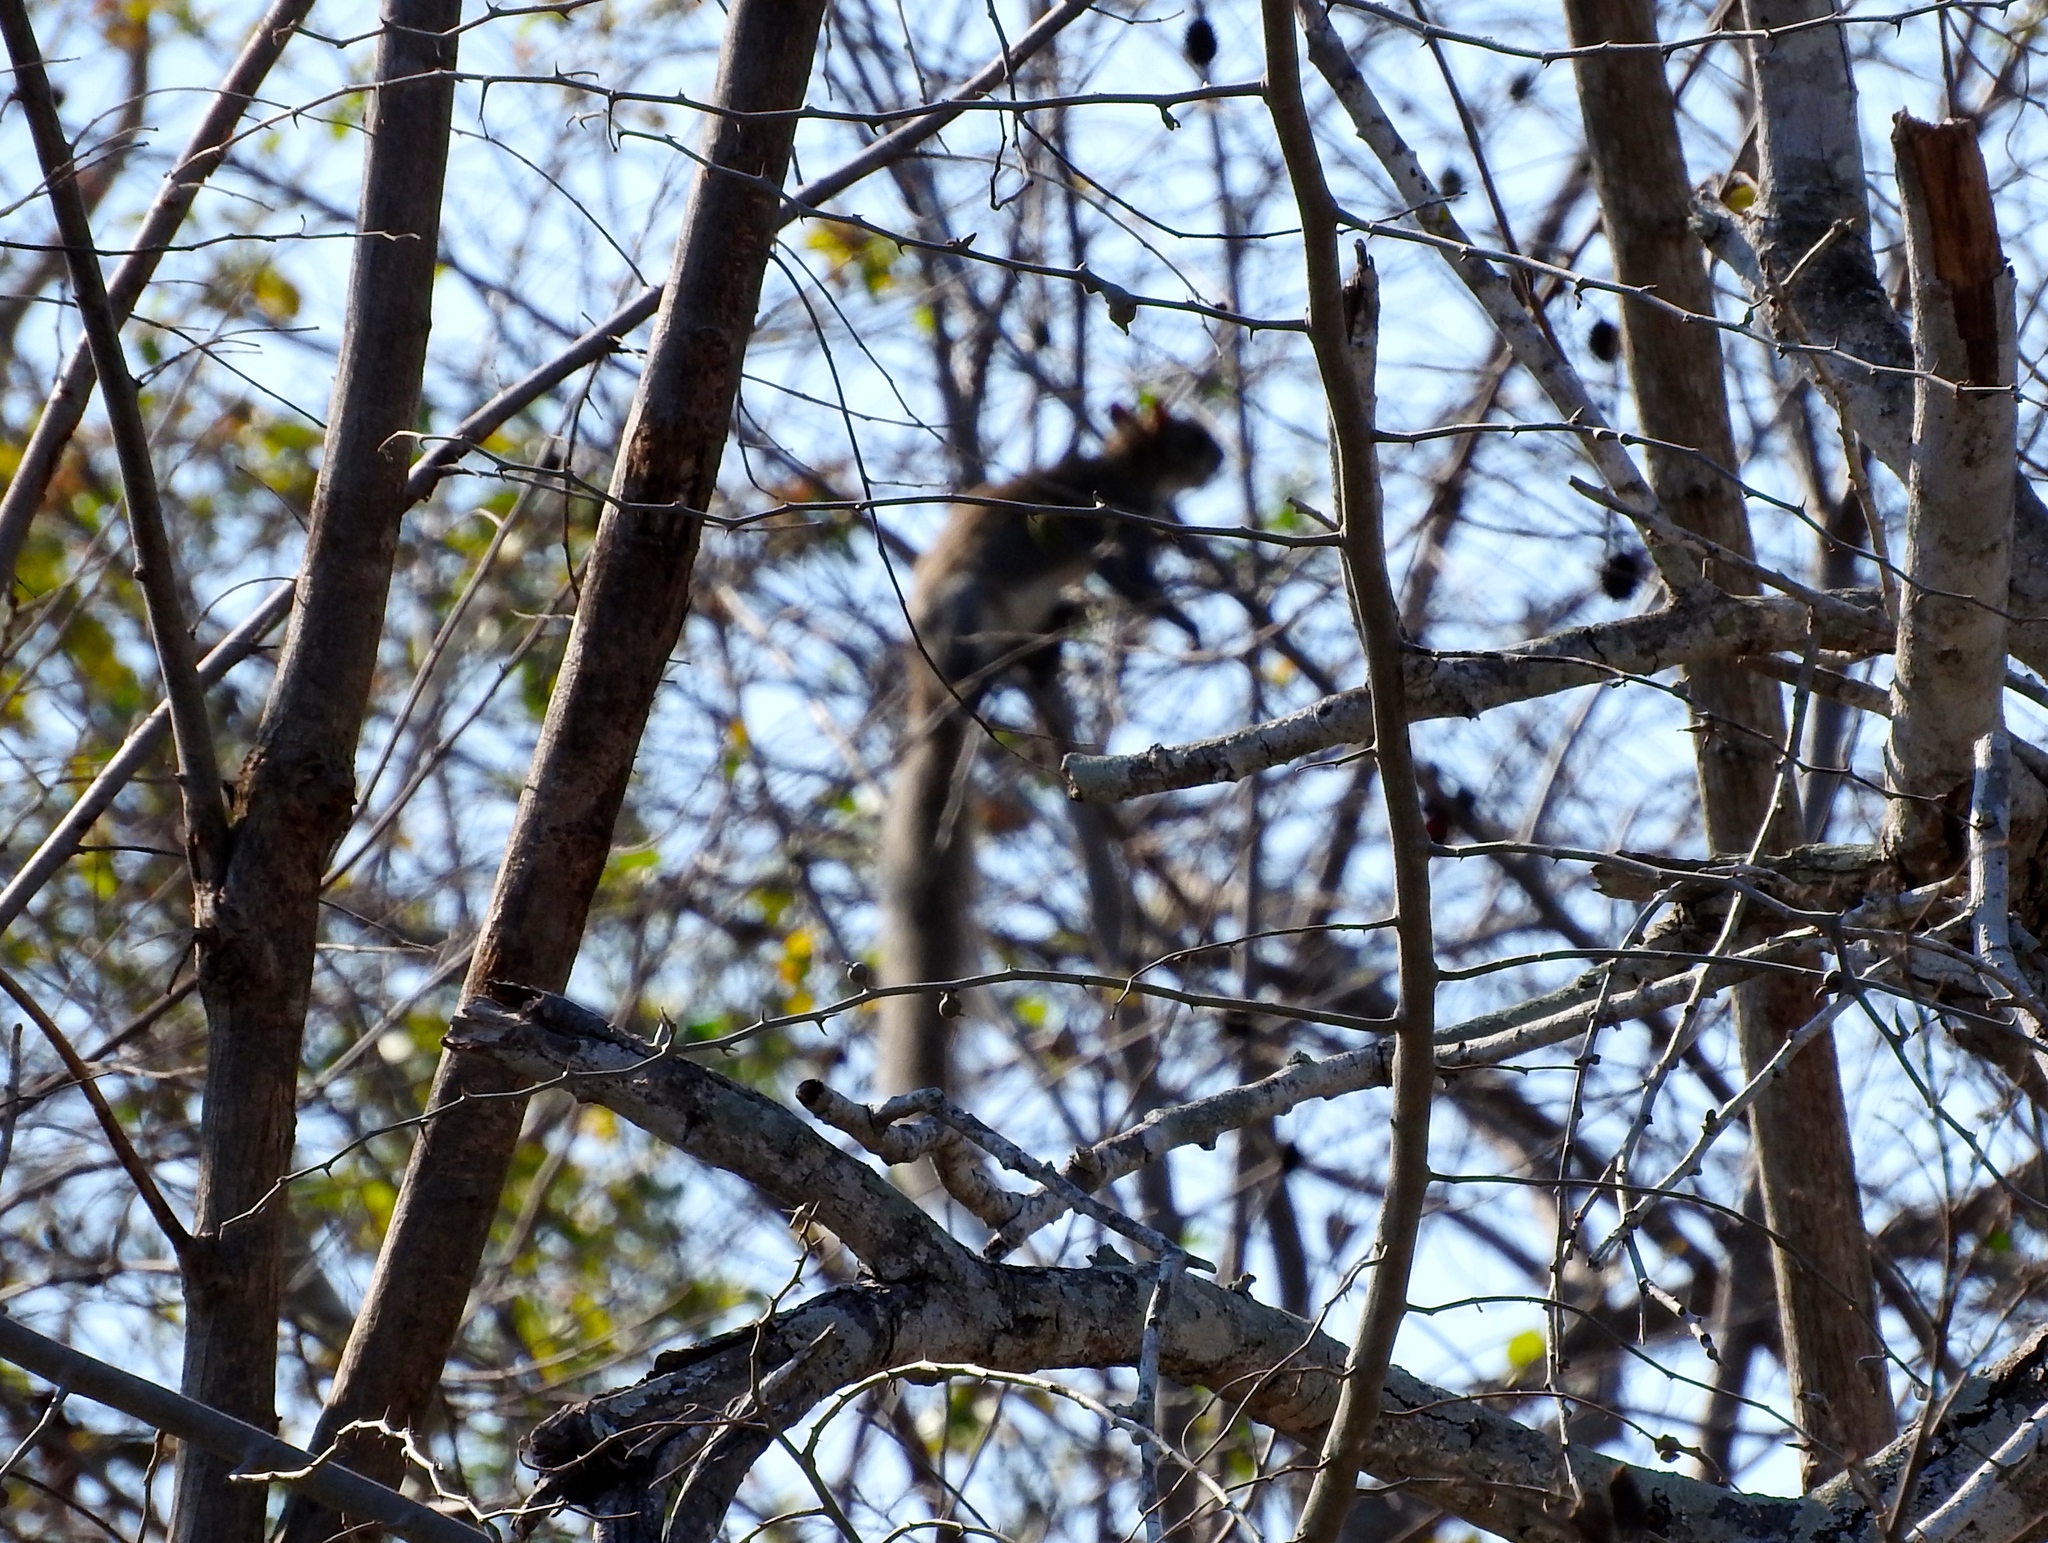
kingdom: Animalia
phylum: Chordata
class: Mammalia
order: Rodentia
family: Sciuridae
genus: Sciurus
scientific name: Sciurus colliaei
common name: Collie's squirrel
